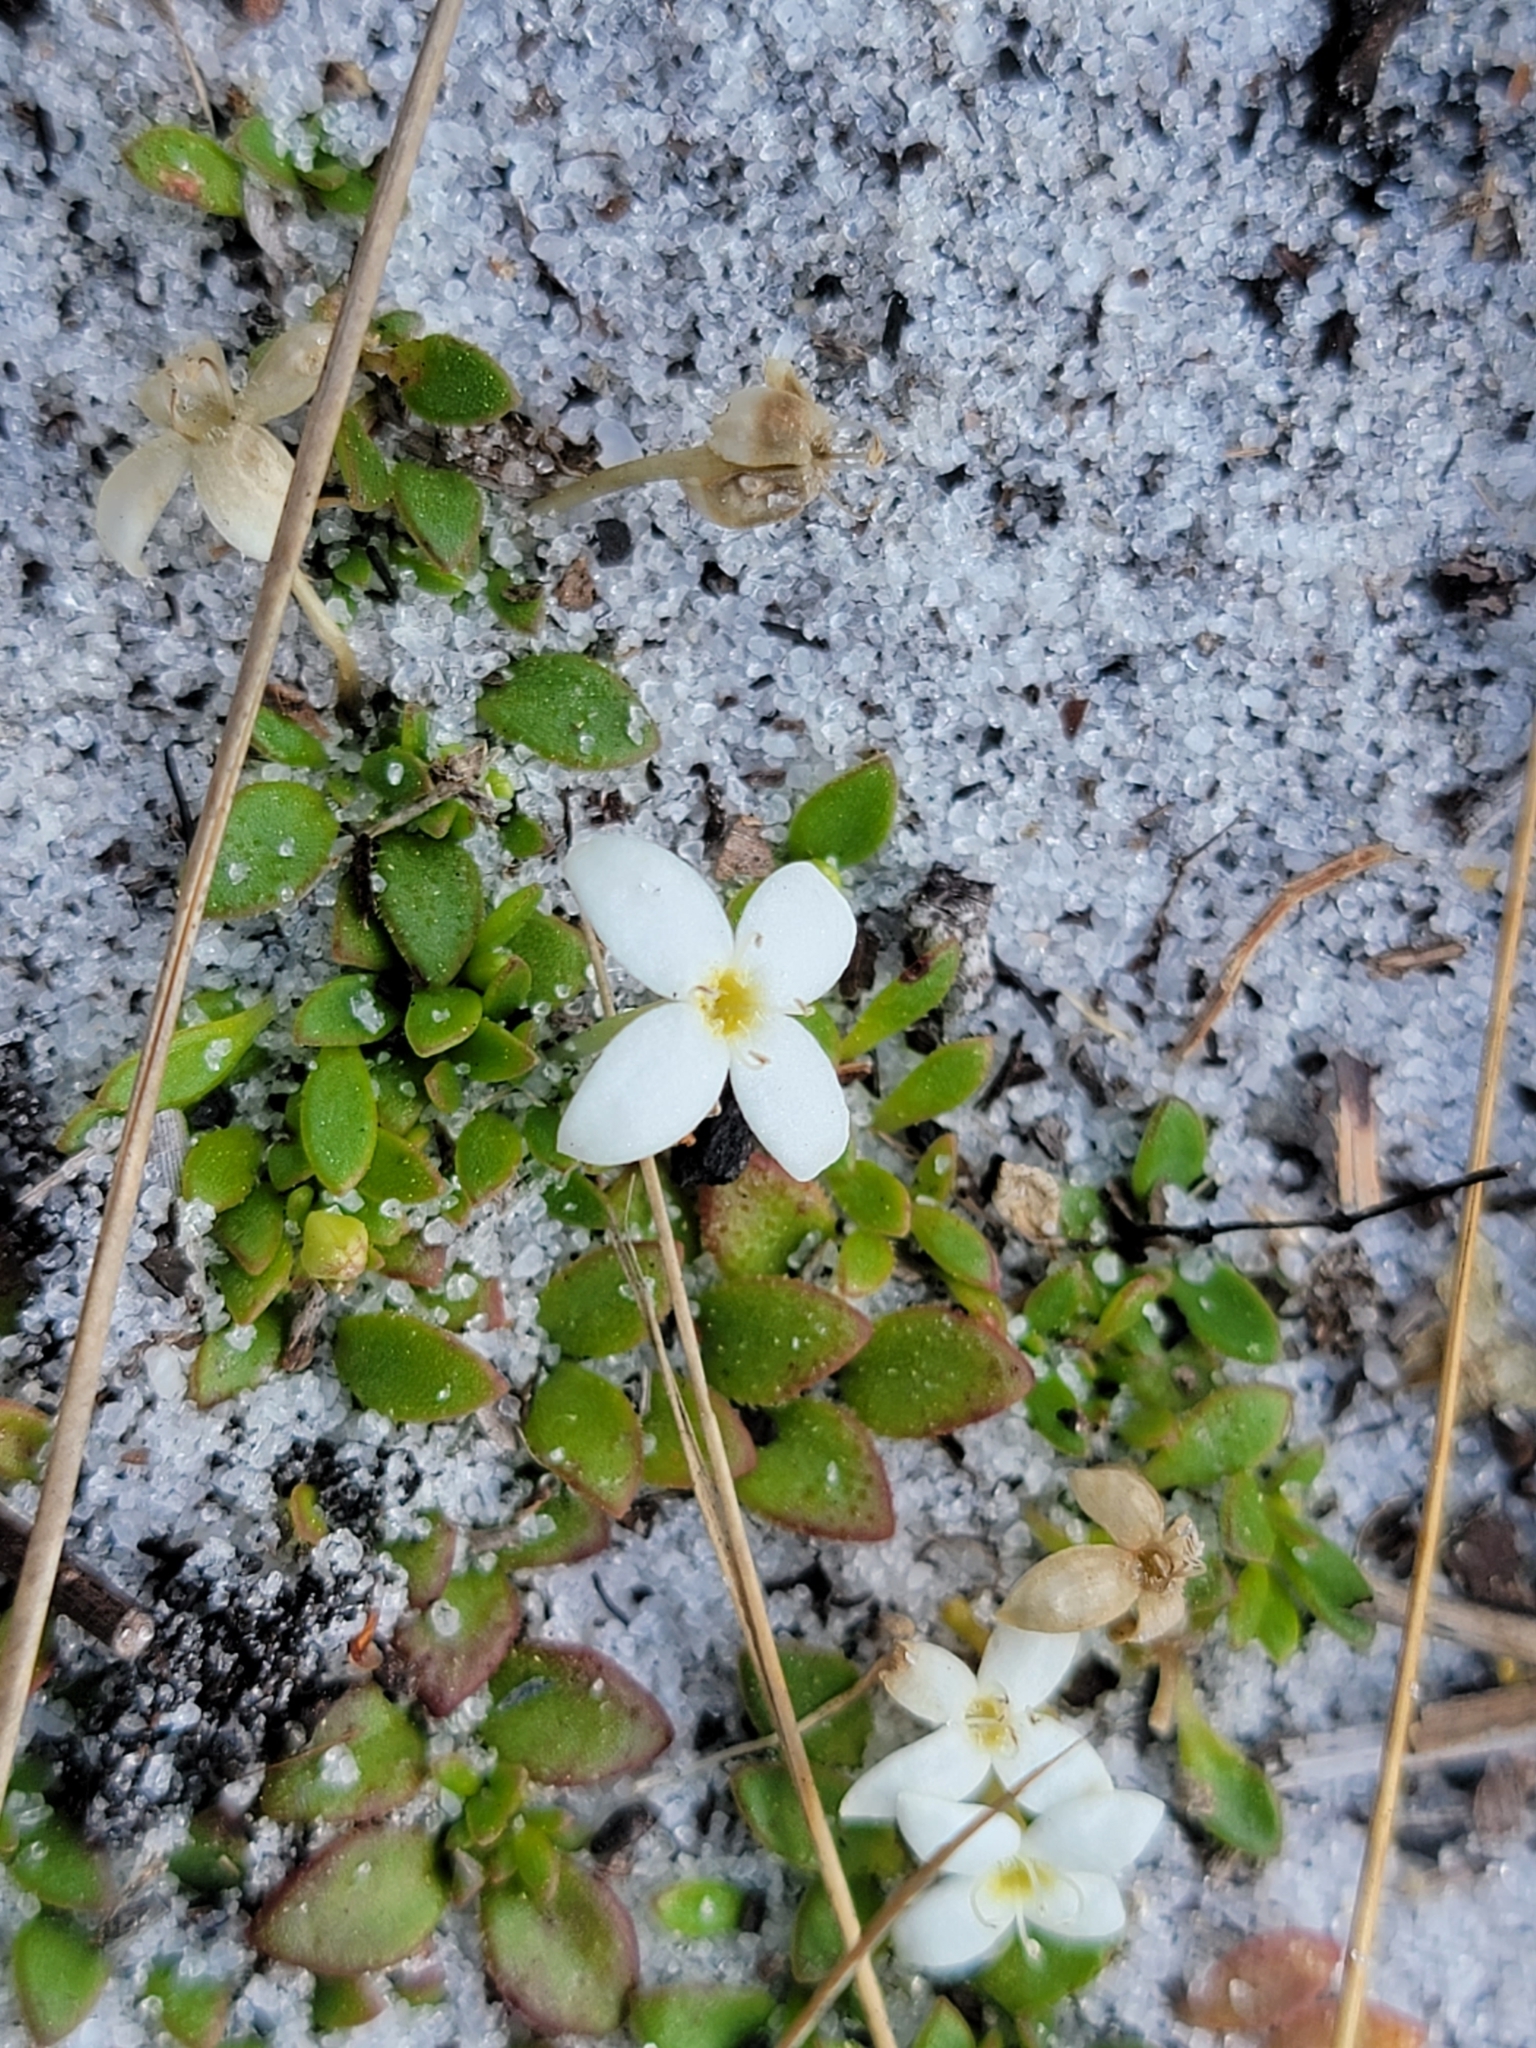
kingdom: Plantae
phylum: Tracheophyta
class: Magnoliopsida
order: Gentianales
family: Rubiaceae
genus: Houstonia
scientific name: Houstonia procumbens
